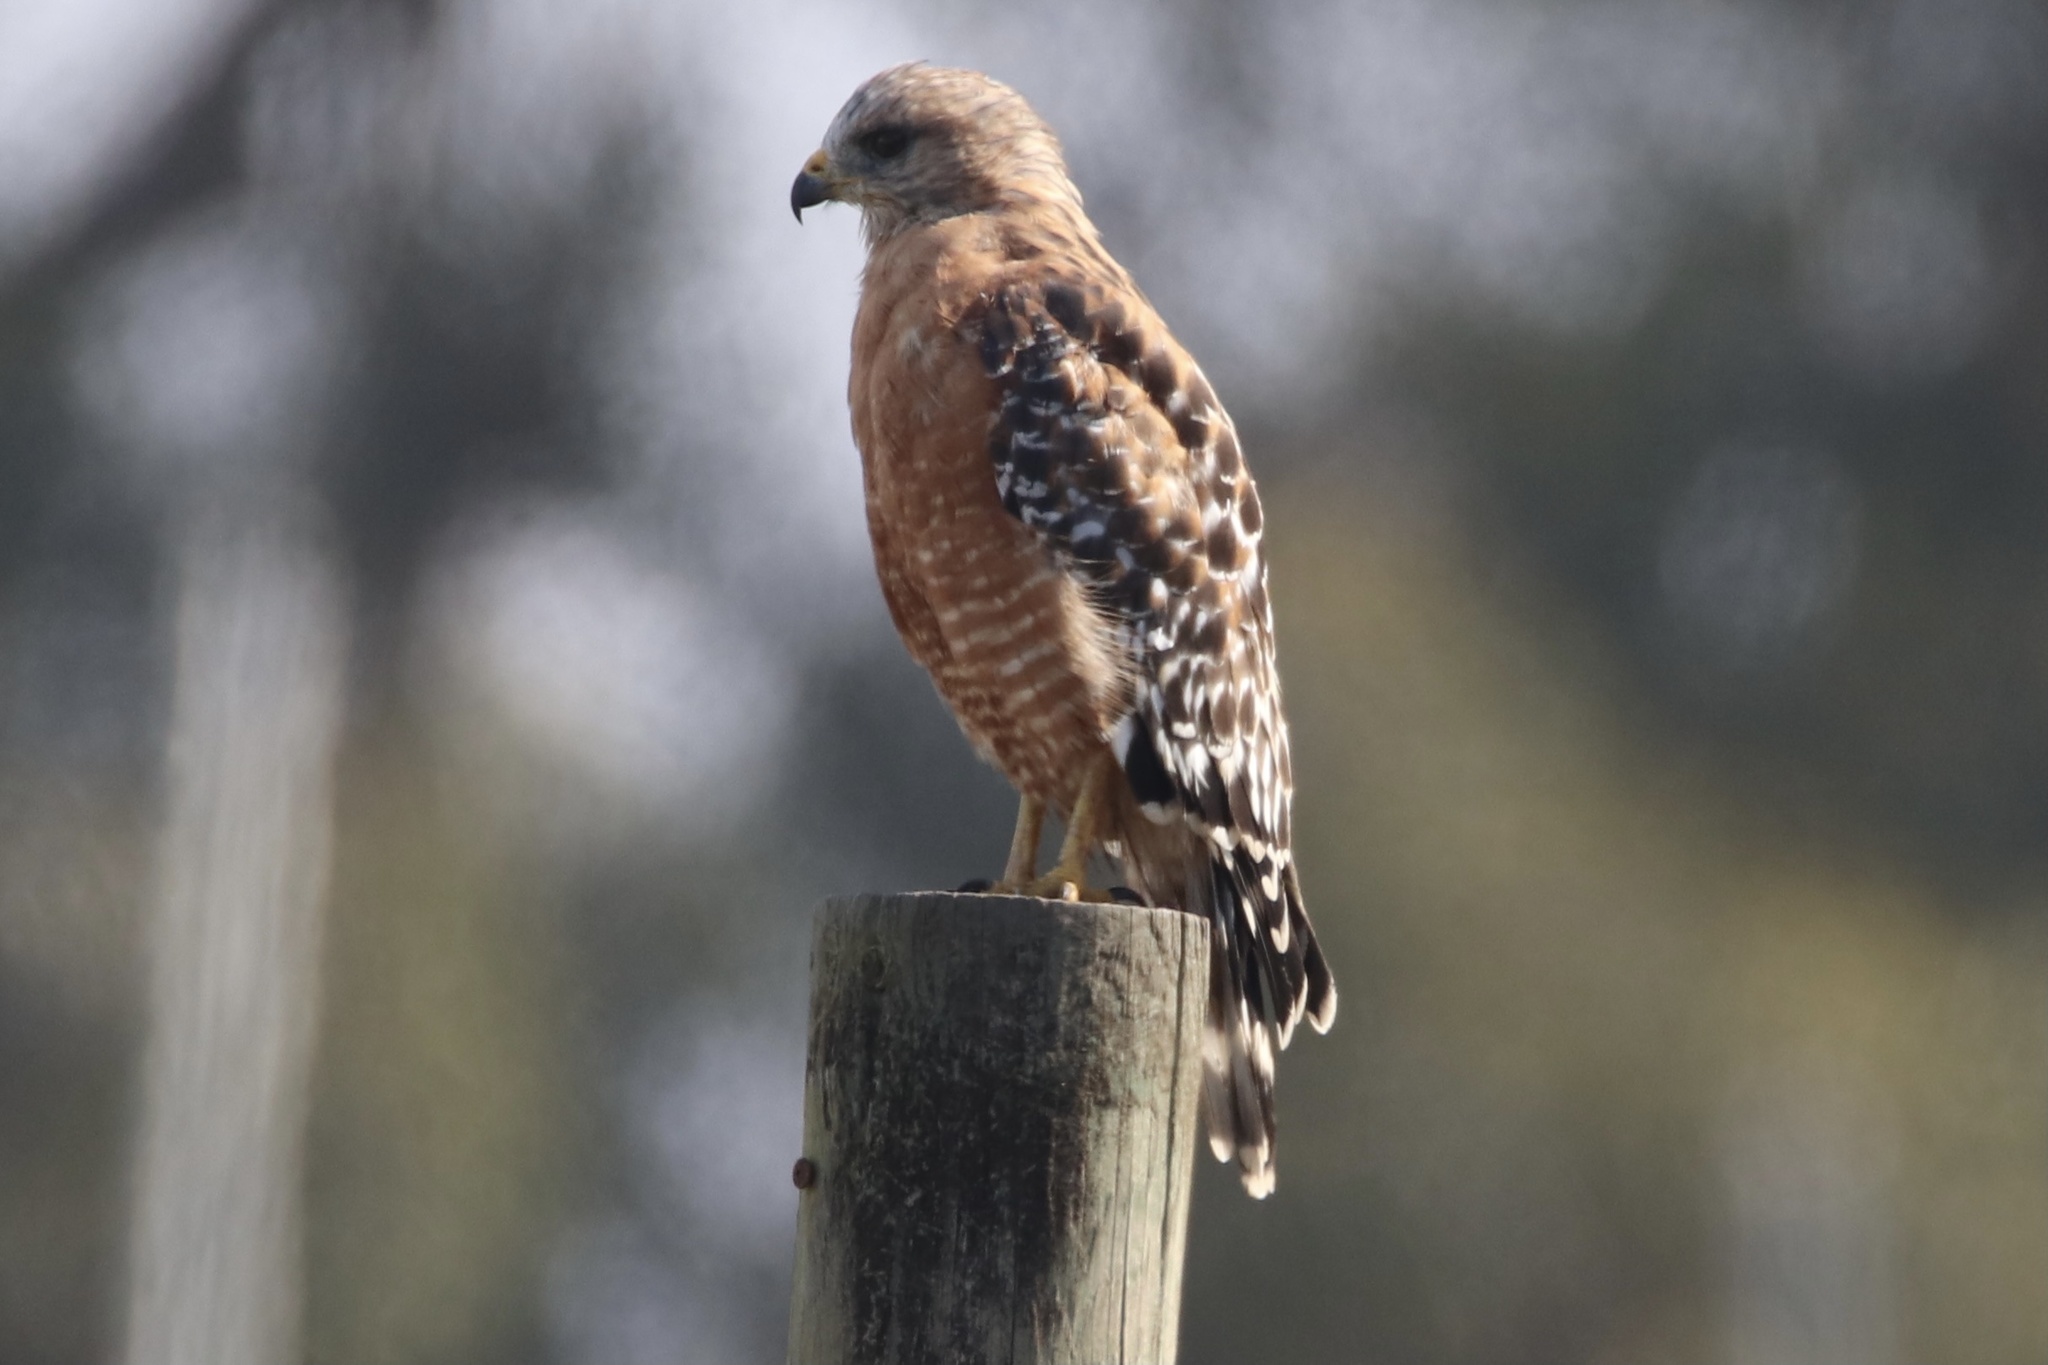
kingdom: Animalia
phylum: Chordata
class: Aves
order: Accipitriformes
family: Accipitridae
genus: Buteo
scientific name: Buteo lineatus
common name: Red-shouldered hawk
